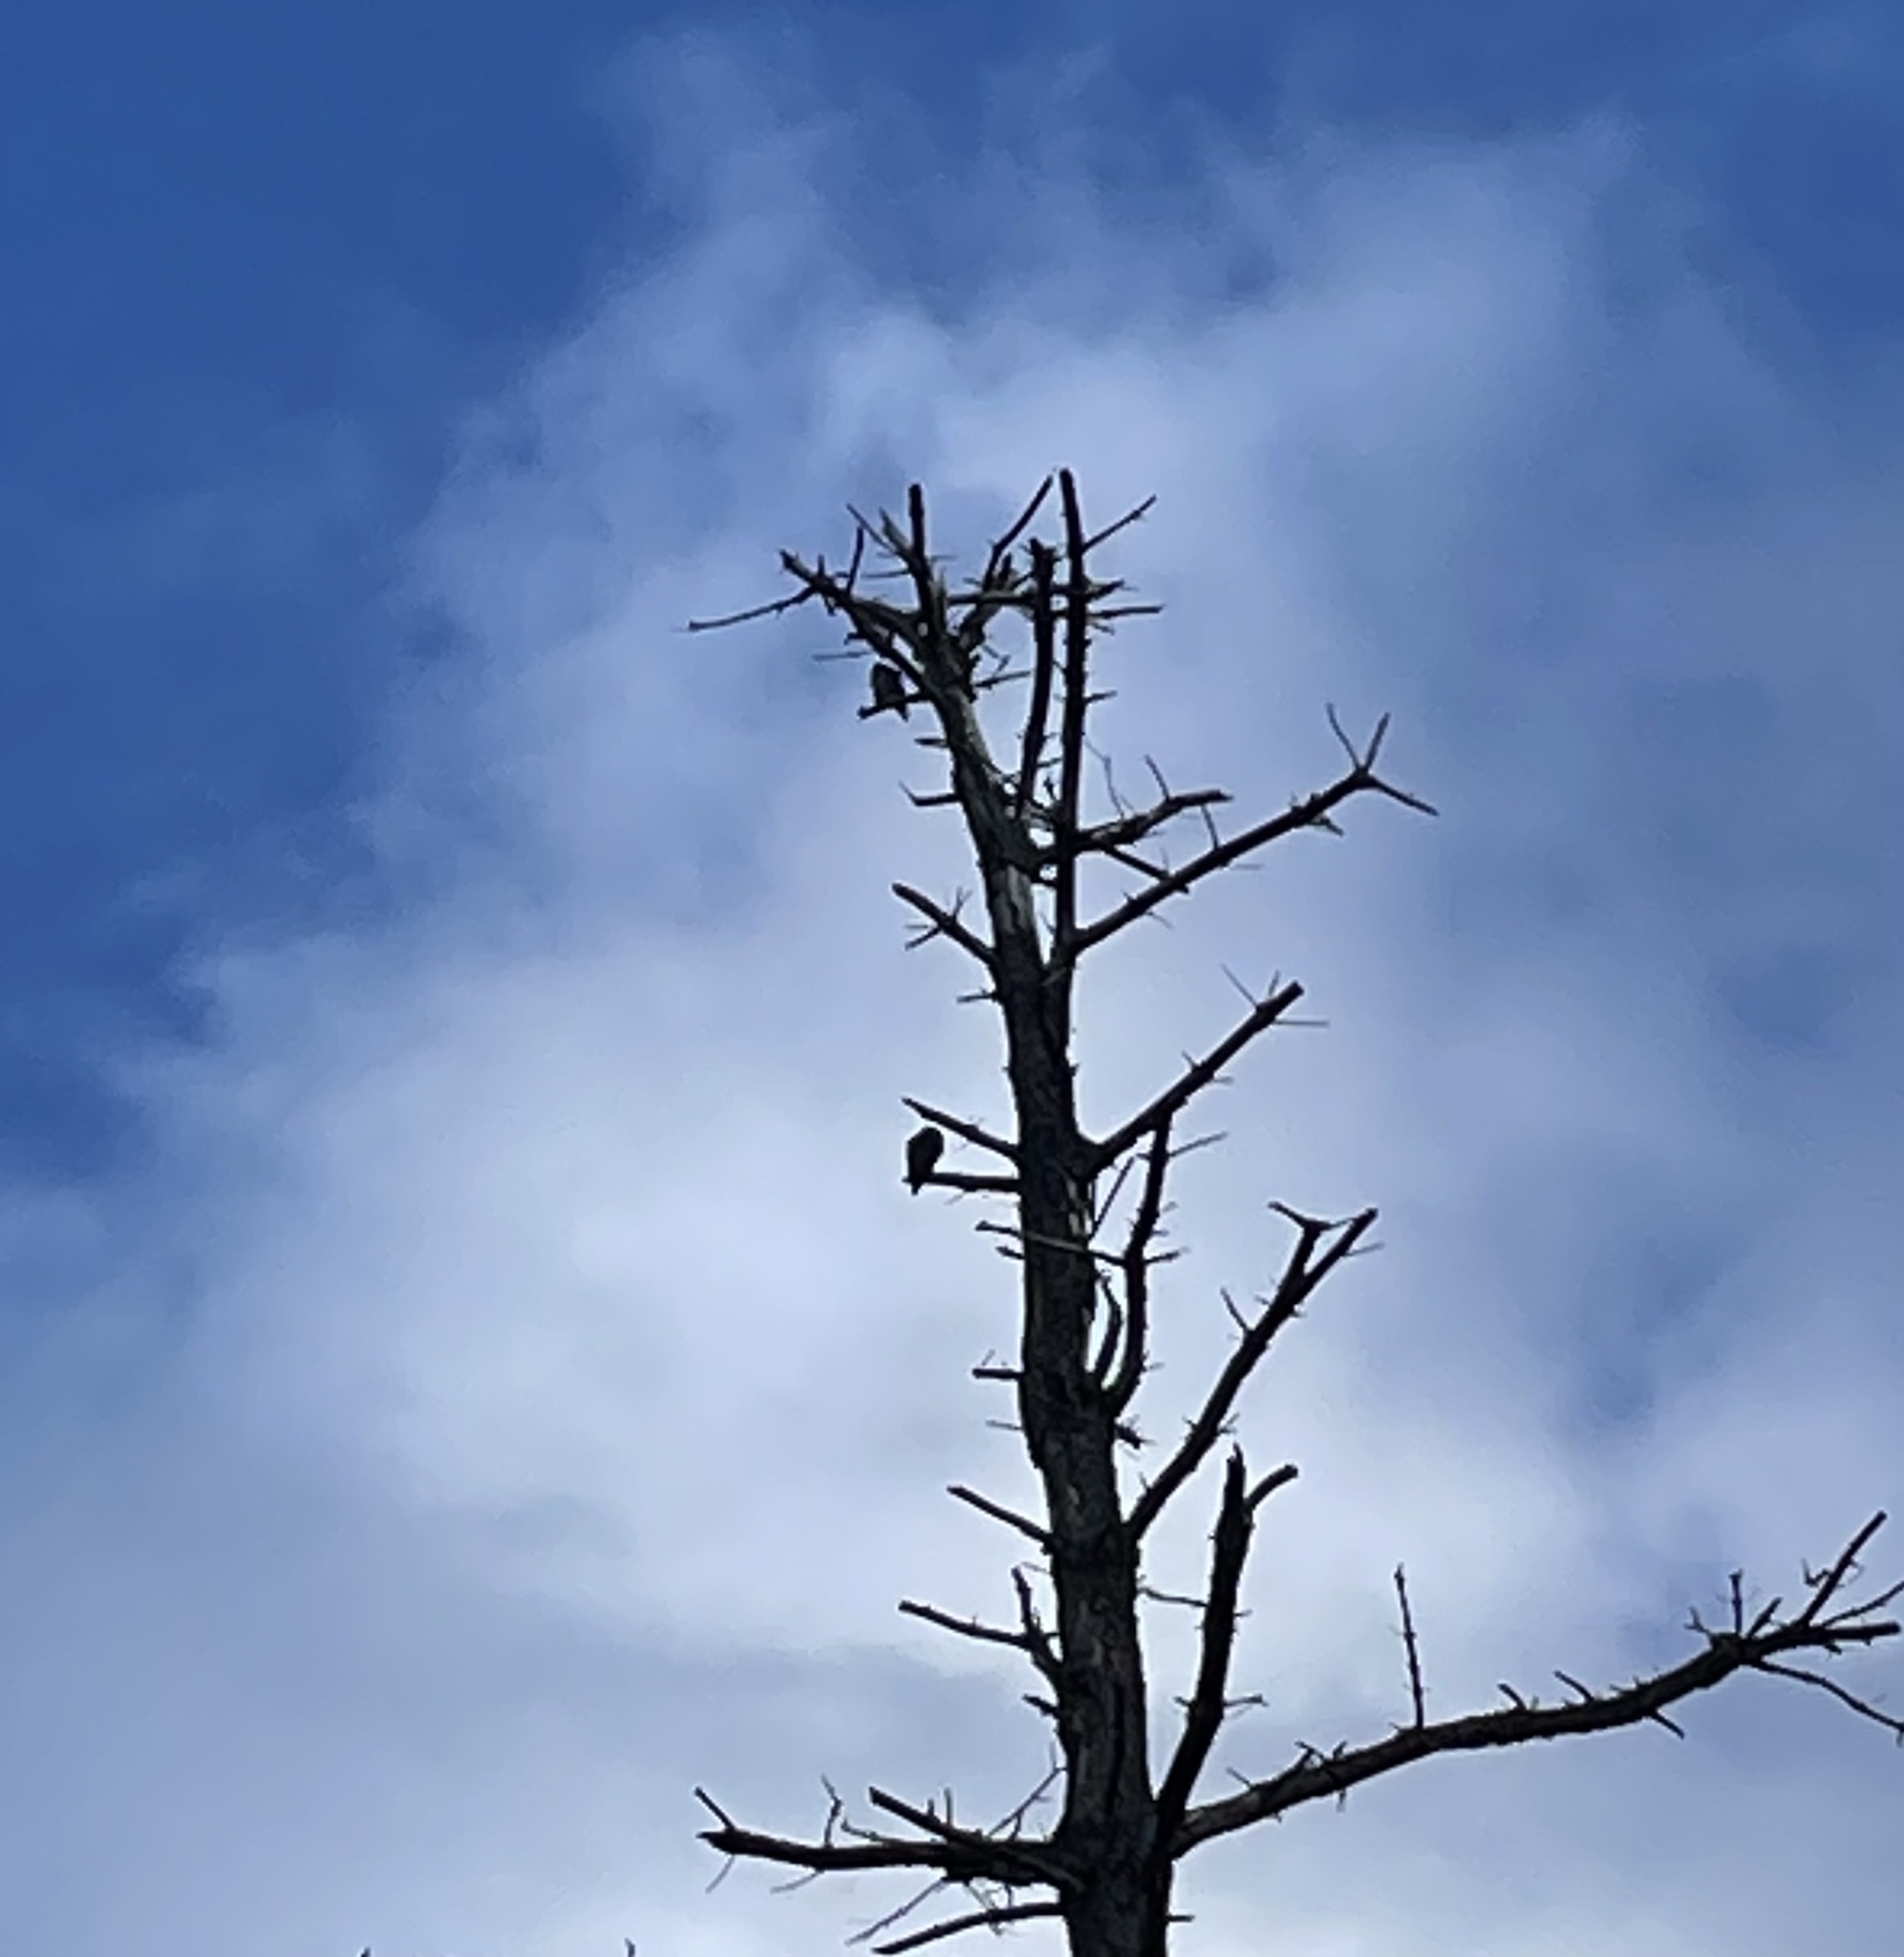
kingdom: Animalia
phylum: Chordata
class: Aves
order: Falconiformes
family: Falconidae
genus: Falco
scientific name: Falco peregrinus
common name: Peregrine falcon
